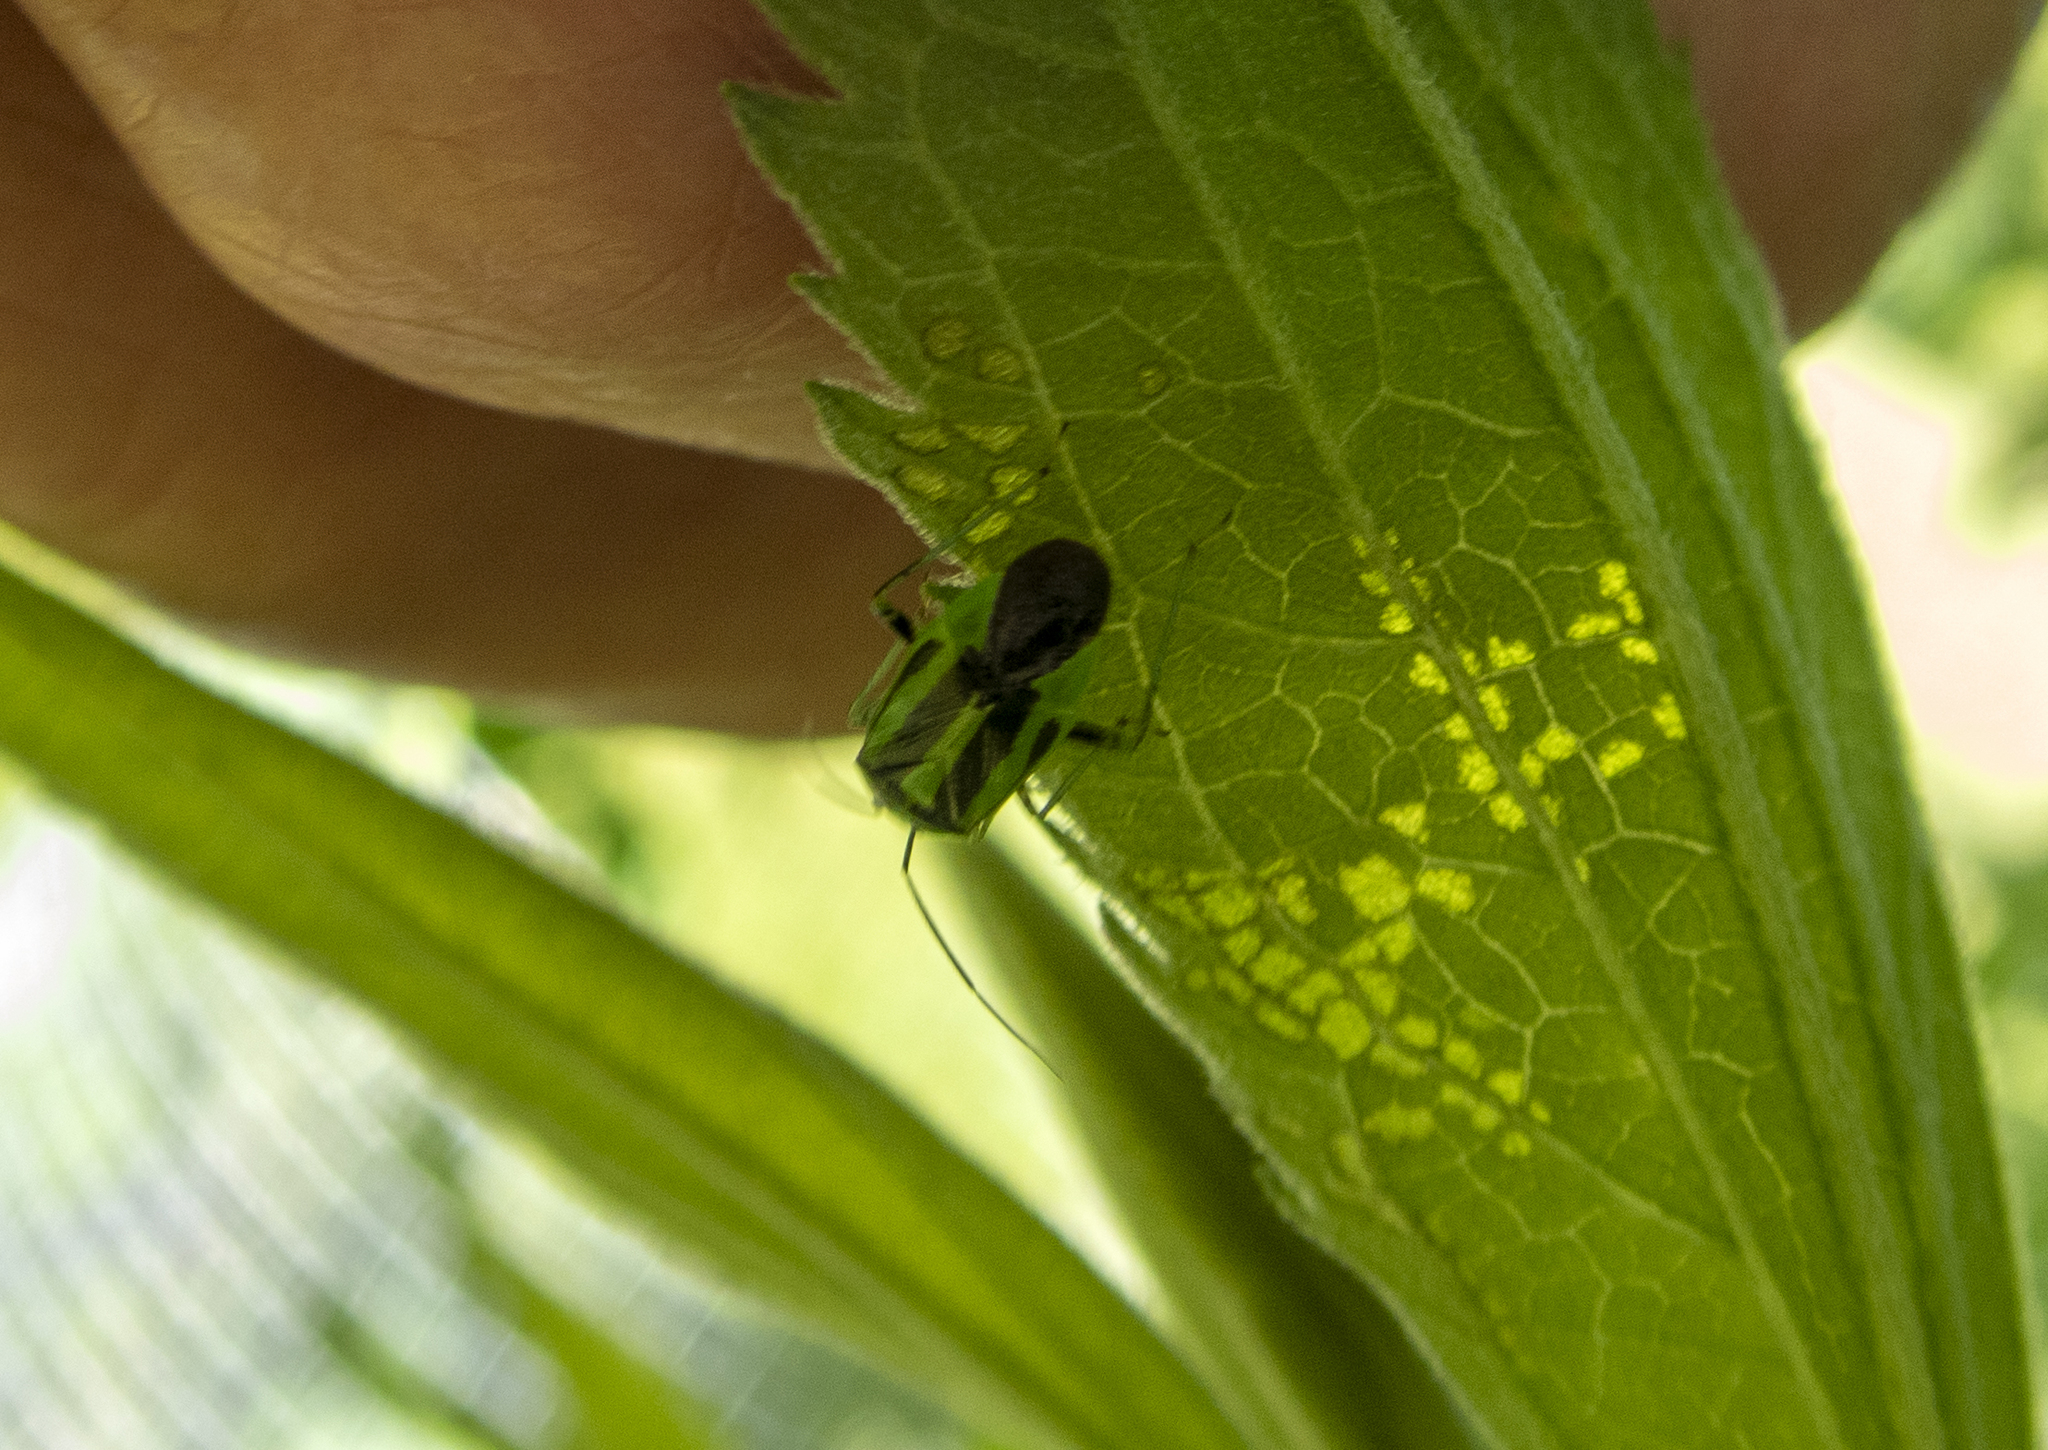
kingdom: Animalia
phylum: Arthropoda
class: Insecta
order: Hemiptera
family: Miridae
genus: Poecilocapsus
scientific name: Poecilocapsus lineatus
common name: Four-lined plant bug
